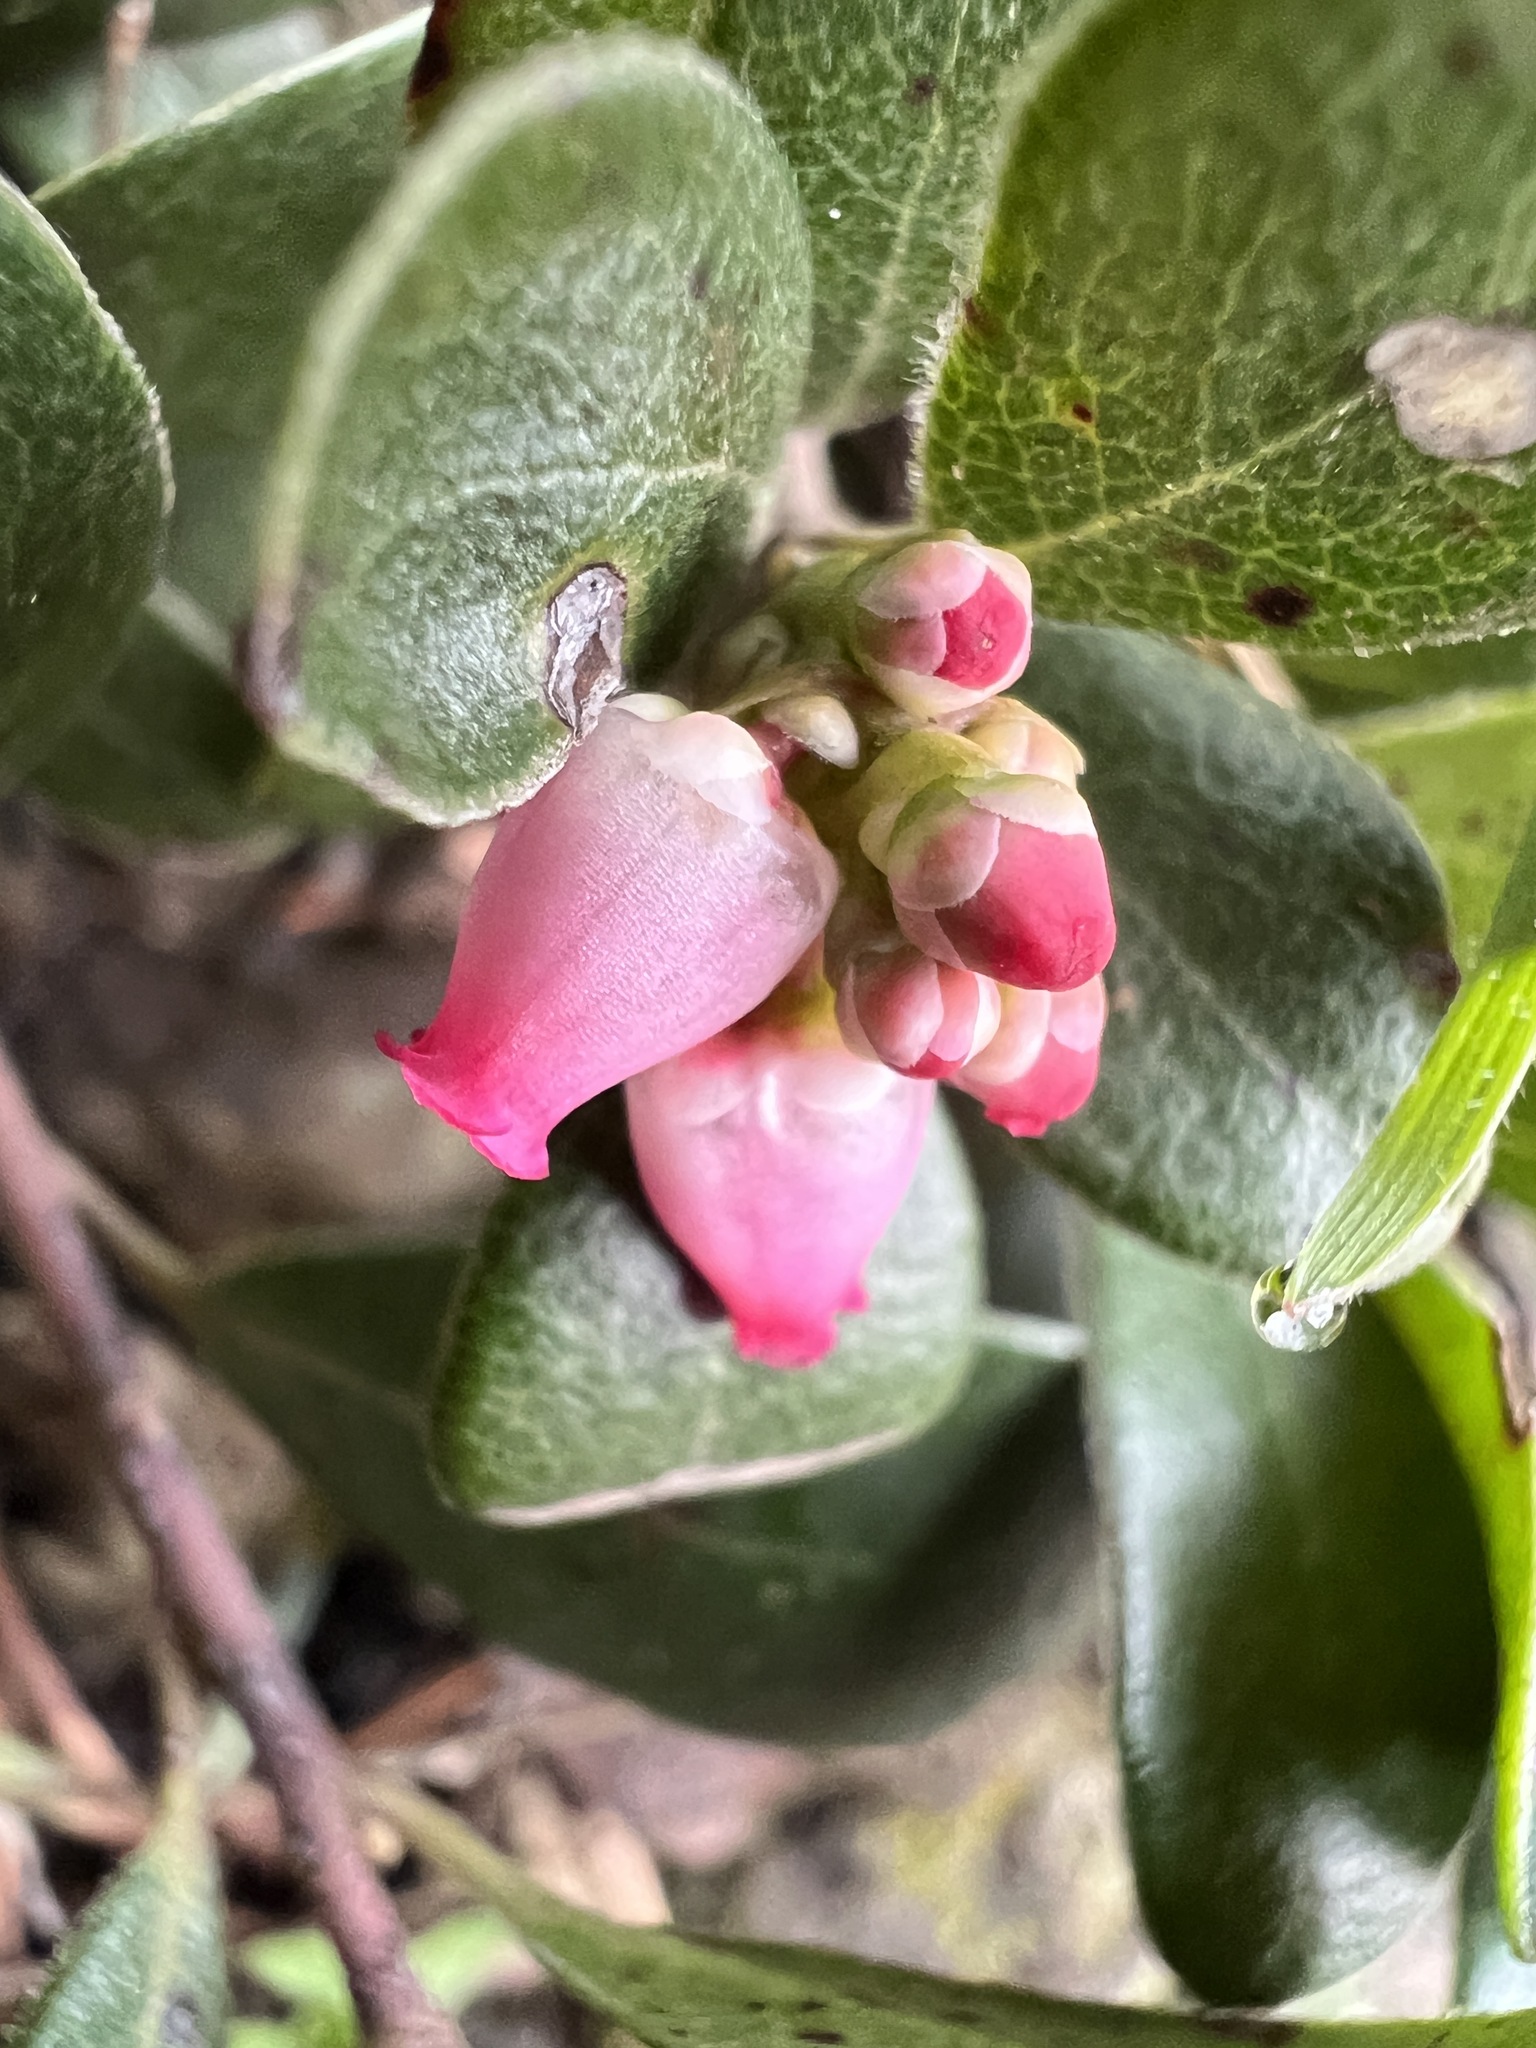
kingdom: Plantae
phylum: Tracheophyta
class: Magnoliopsida
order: Ericales
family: Ericaceae
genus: Arctostaphylos
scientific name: Arctostaphylos uva-ursi
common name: Bearberry
